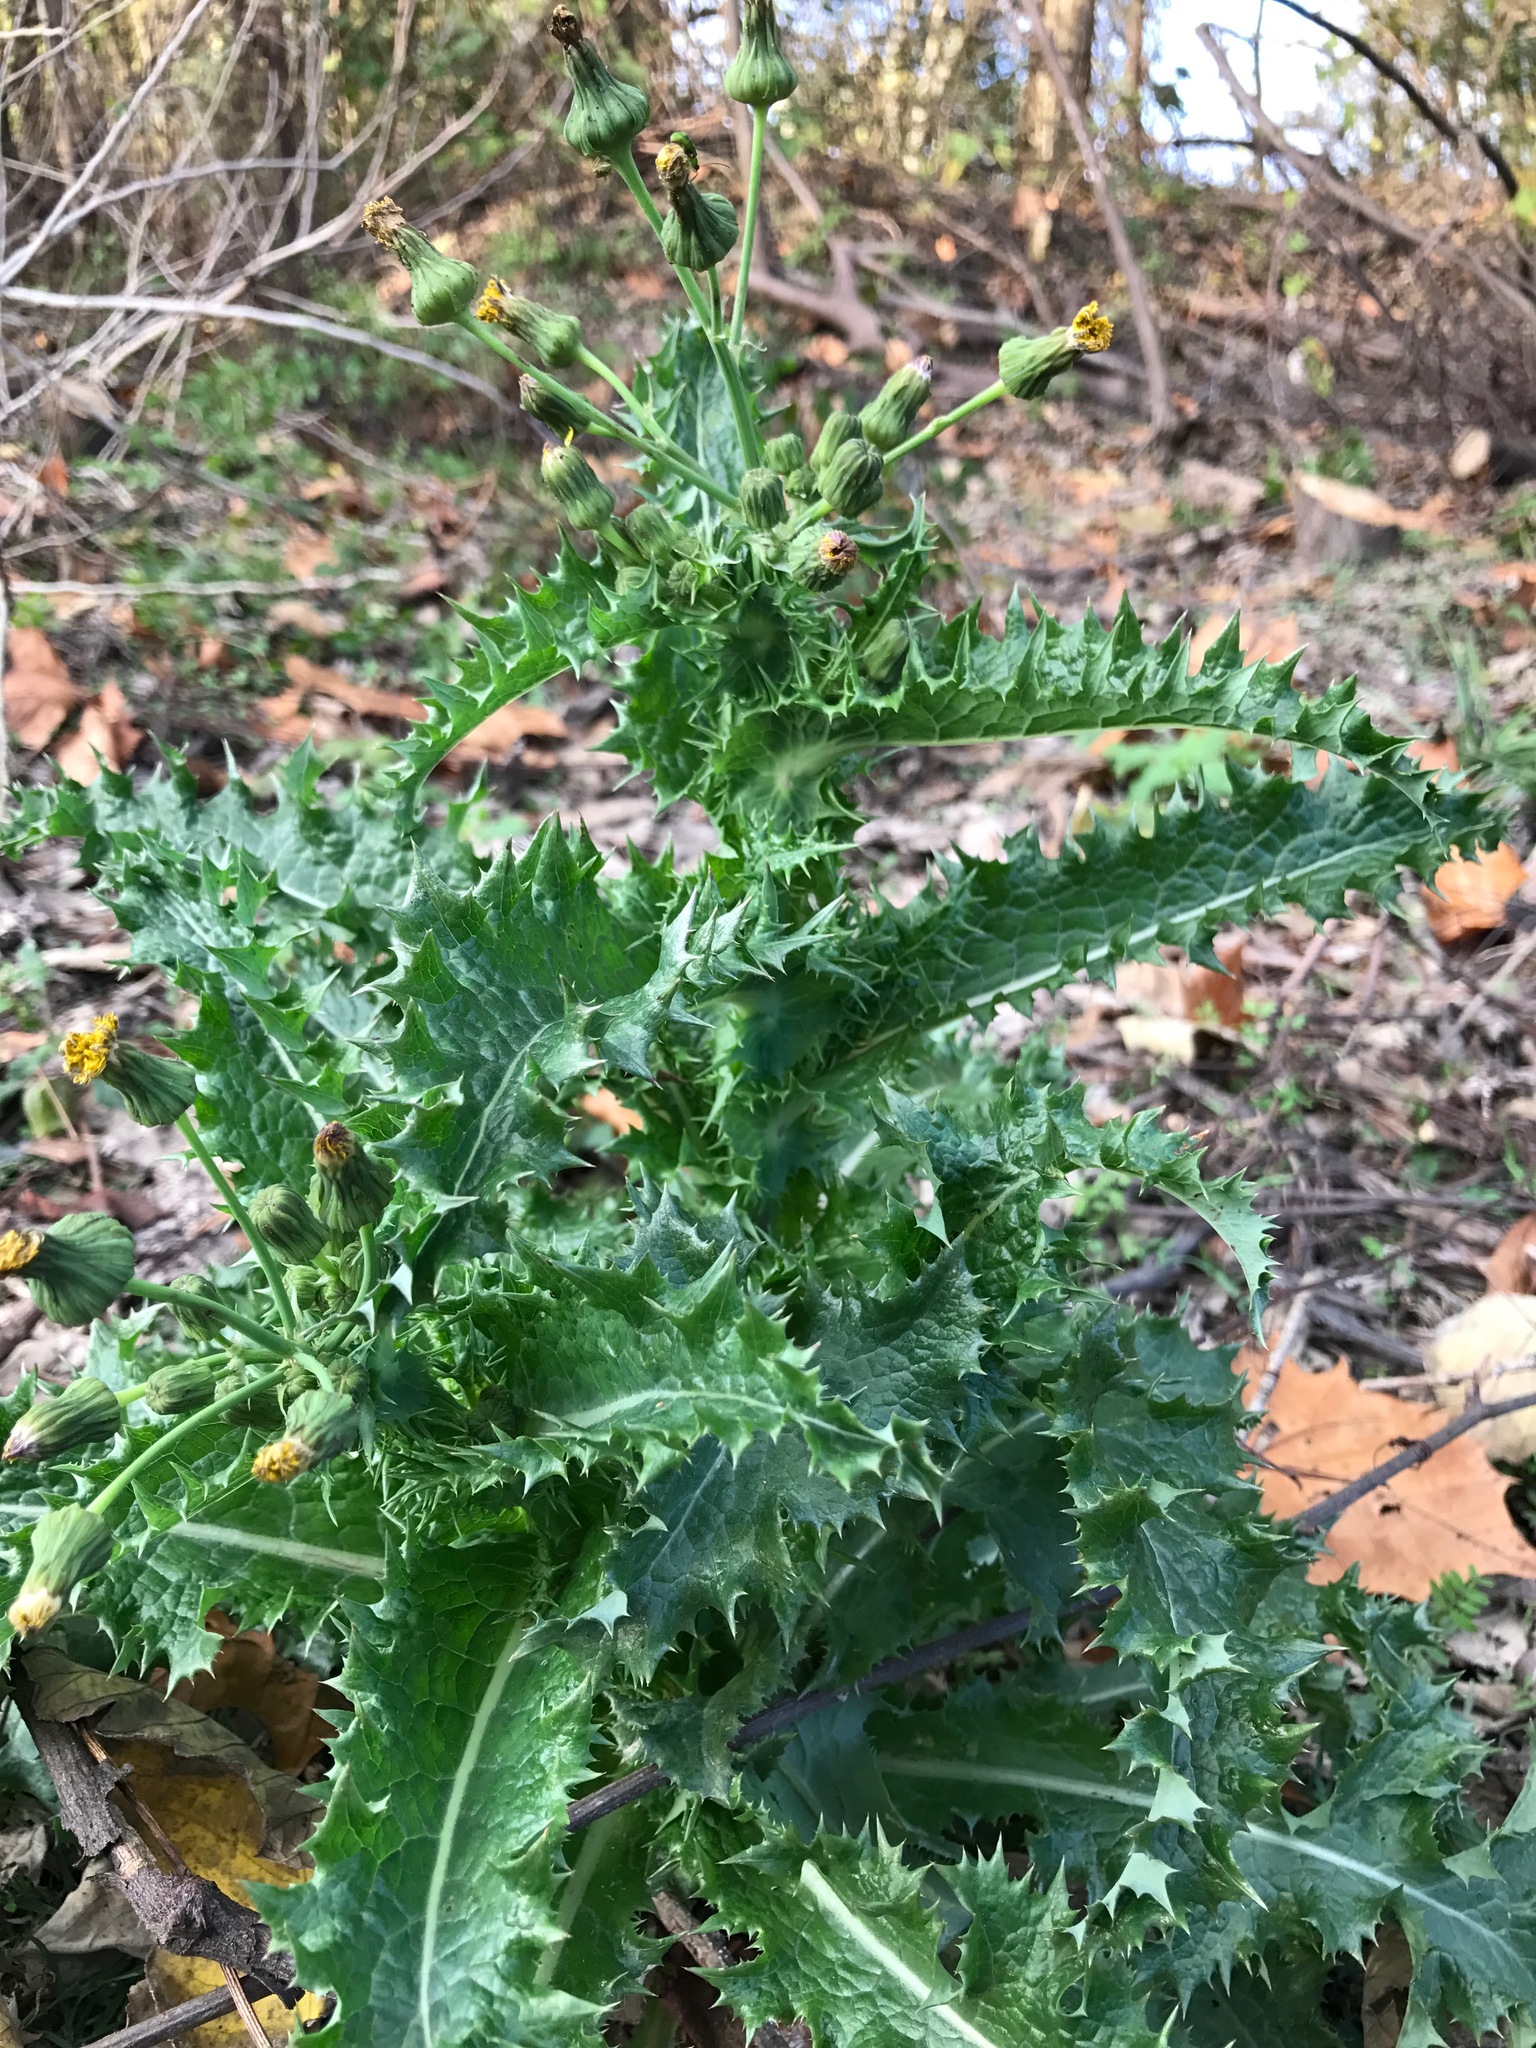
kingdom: Plantae
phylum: Tracheophyta
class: Magnoliopsida
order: Asterales
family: Asteraceae
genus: Sonchus
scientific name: Sonchus asper
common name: Prickly sow-thistle
